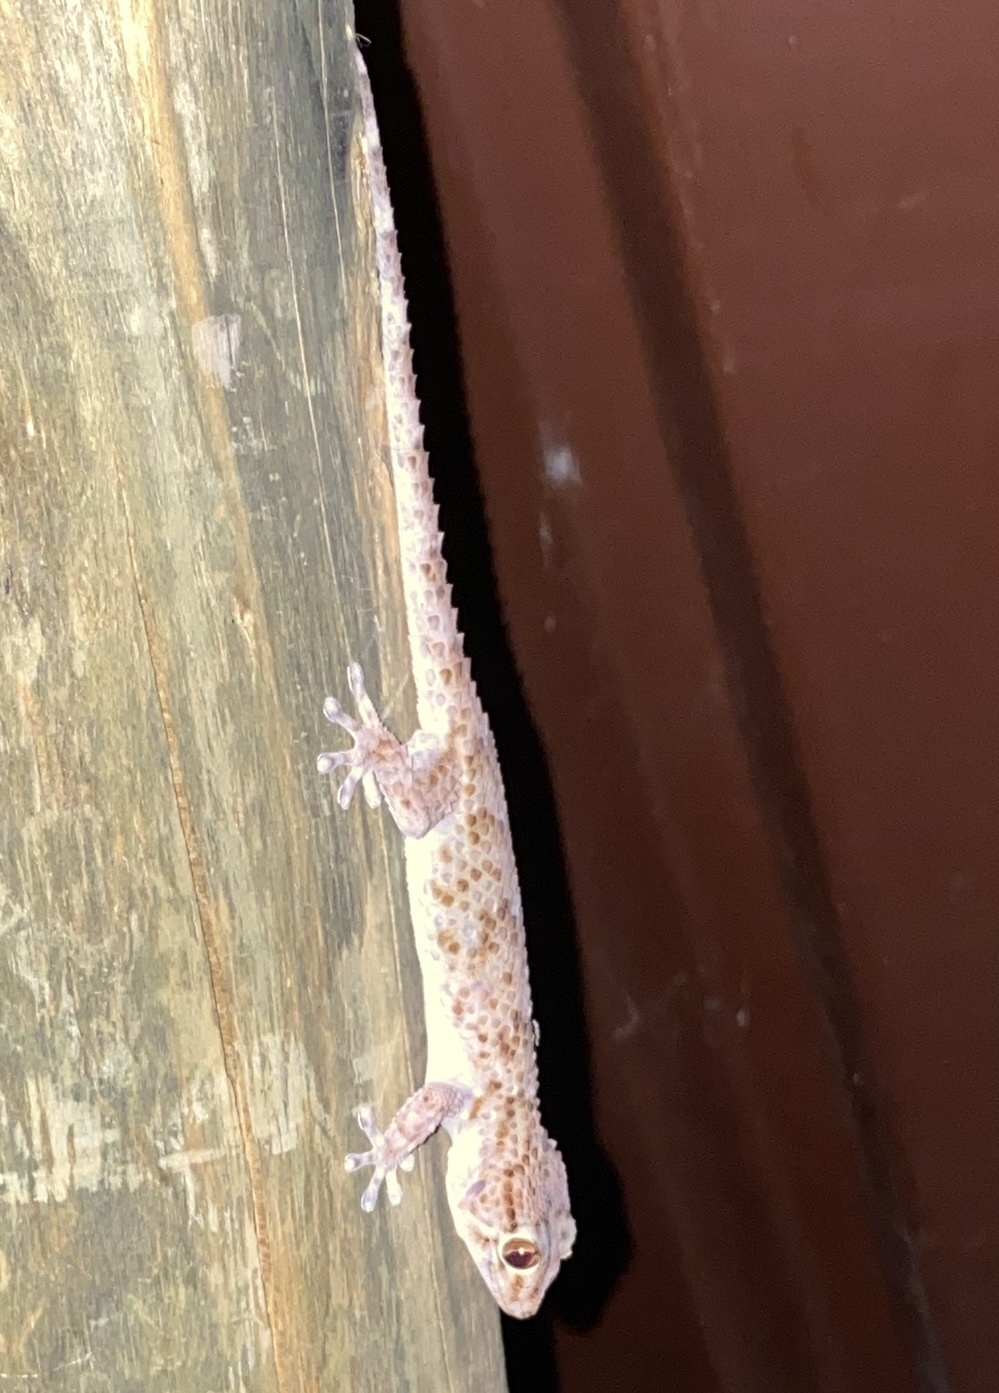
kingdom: Animalia
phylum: Chordata
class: Squamata
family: Gekkonidae
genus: Chondrodactylus
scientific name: Chondrodactylus bibronii
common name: Bibron's gecko
